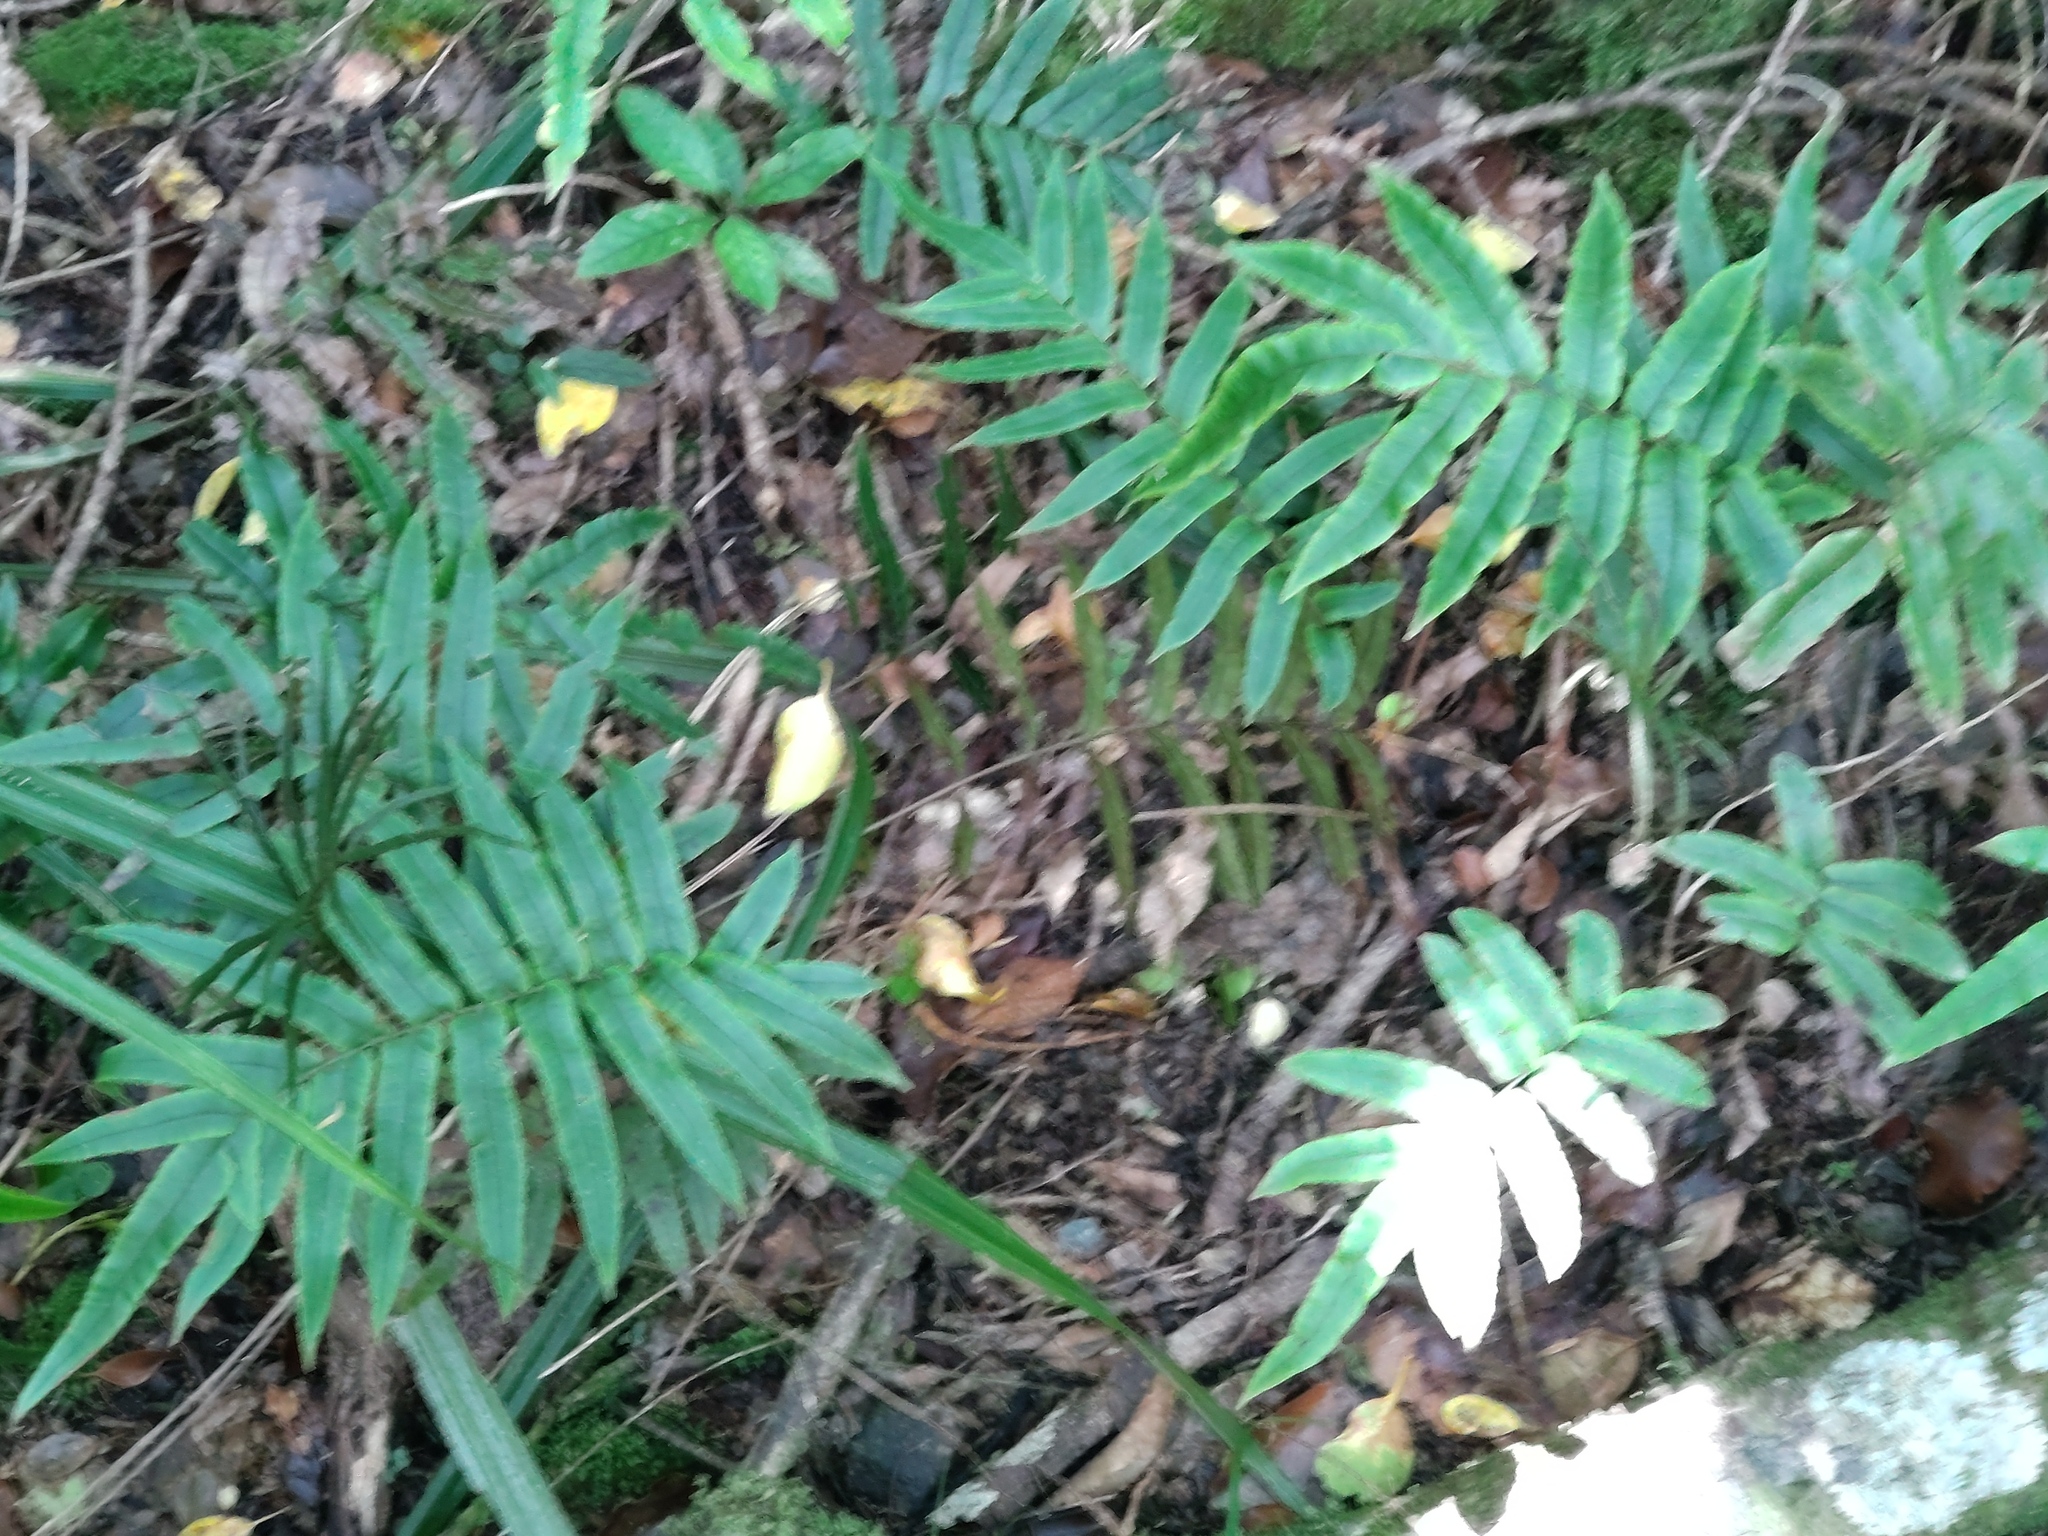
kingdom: Plantae
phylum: Tracheophyta
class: Polypodiopsida
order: Polypodiales
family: Blechnaceae
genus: Parablechnum
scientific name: Parablechnum procerum
